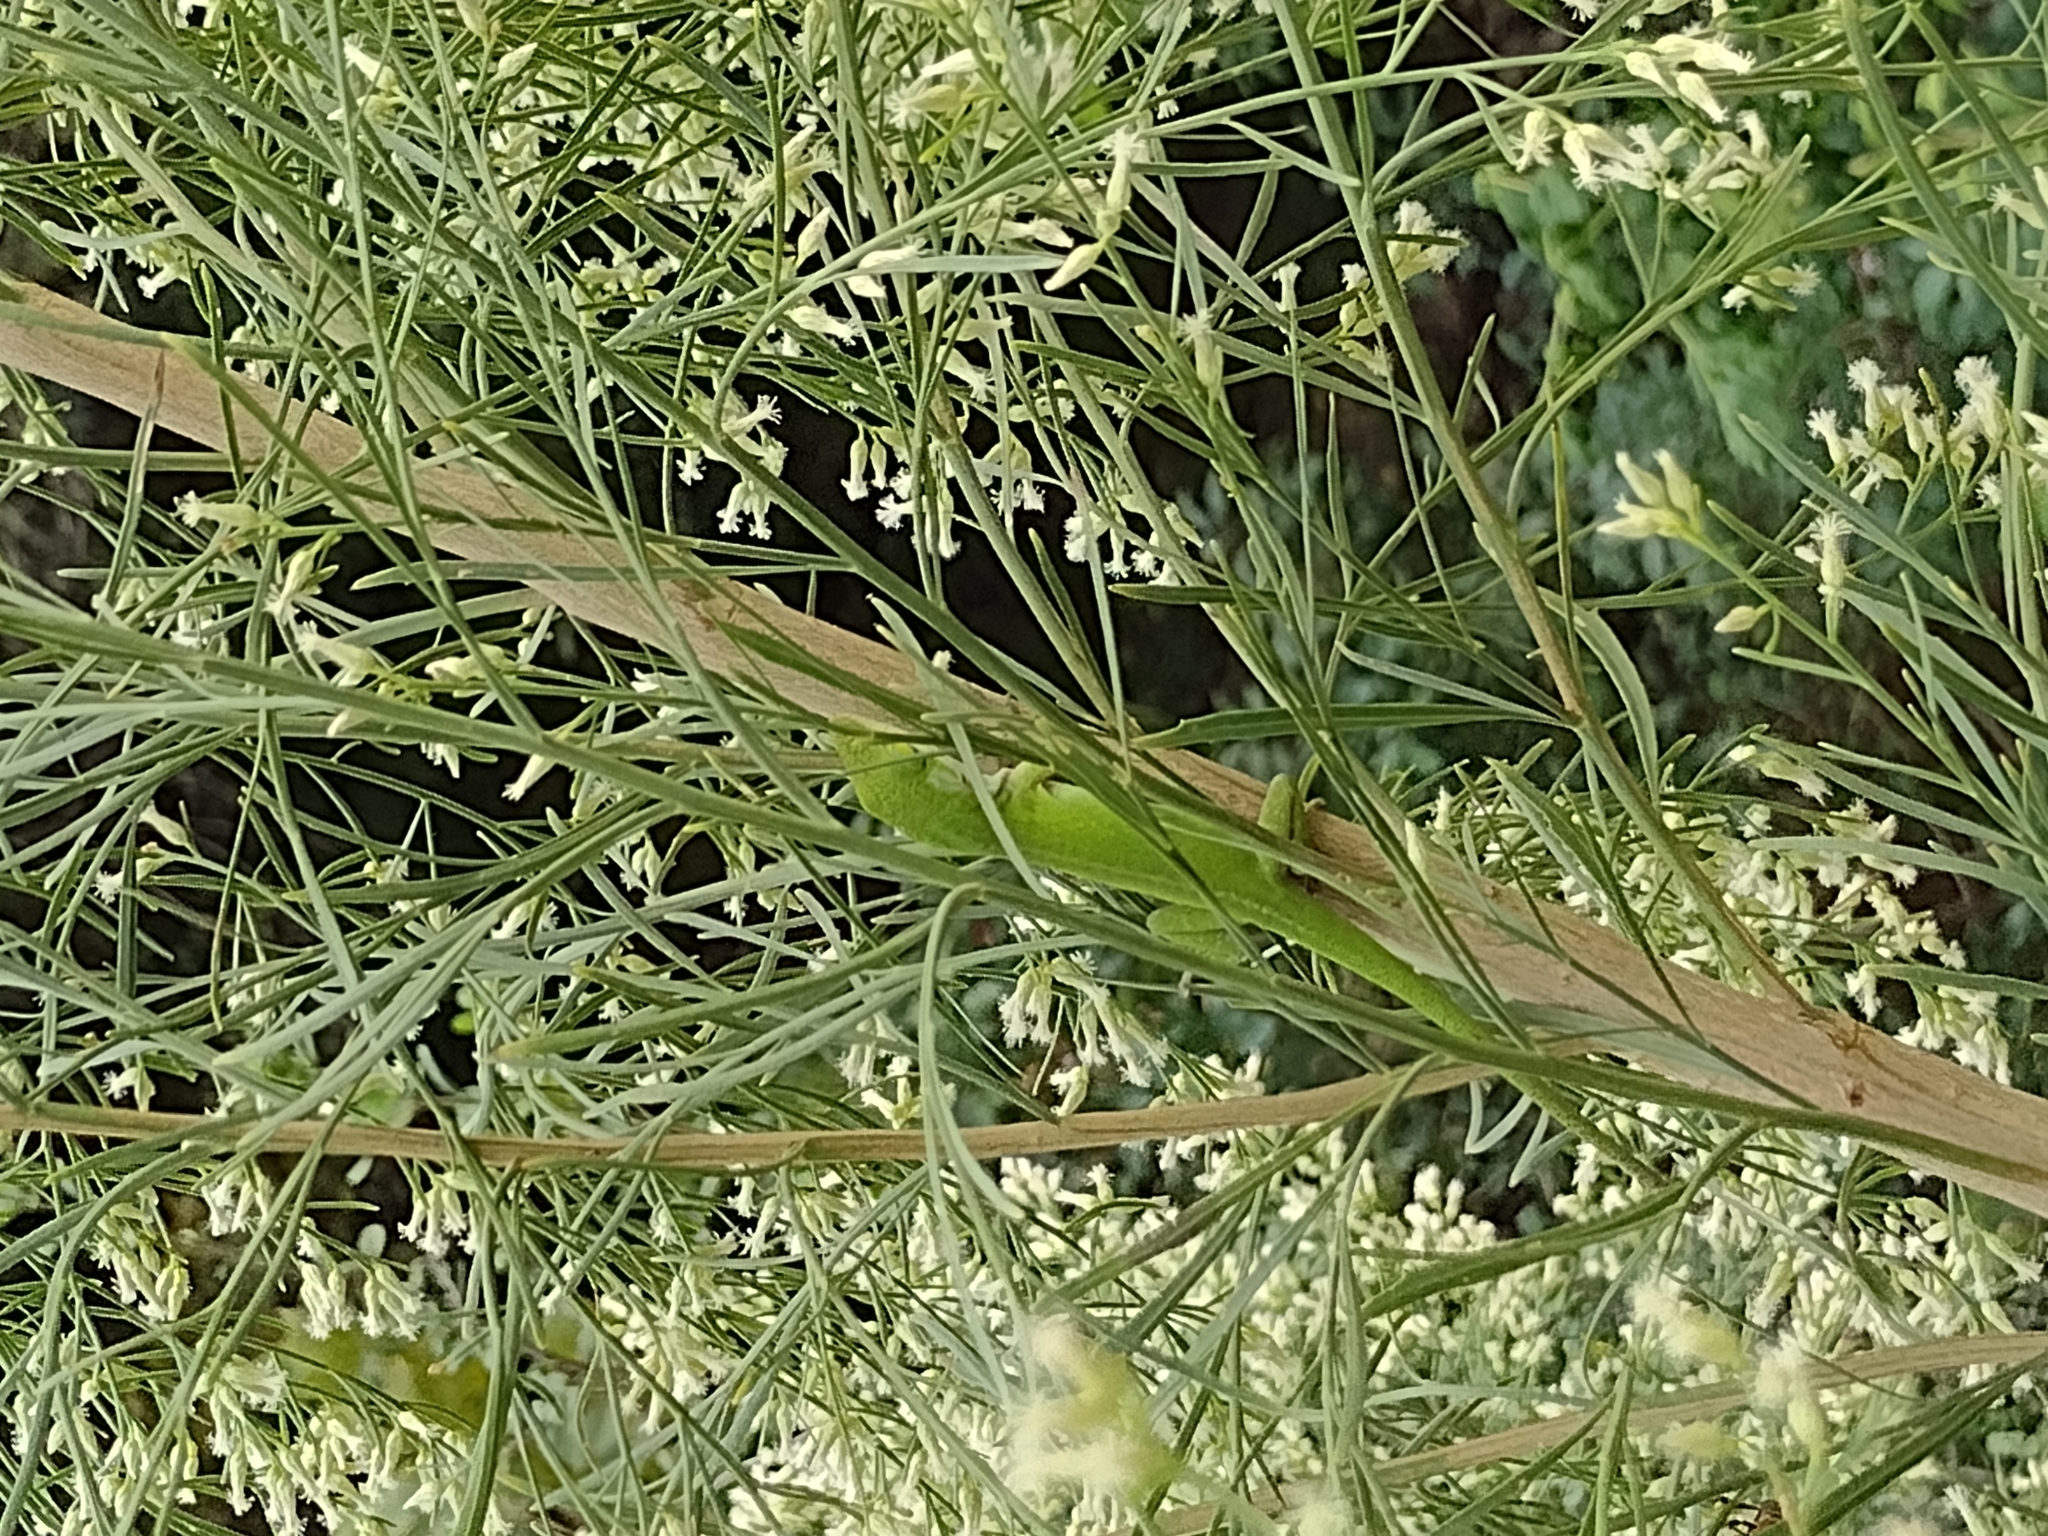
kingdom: Animalia
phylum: Chordata
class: Squamata
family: Dactyloidae
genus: Anolis
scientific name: Anolis carolinensis
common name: Green anole
